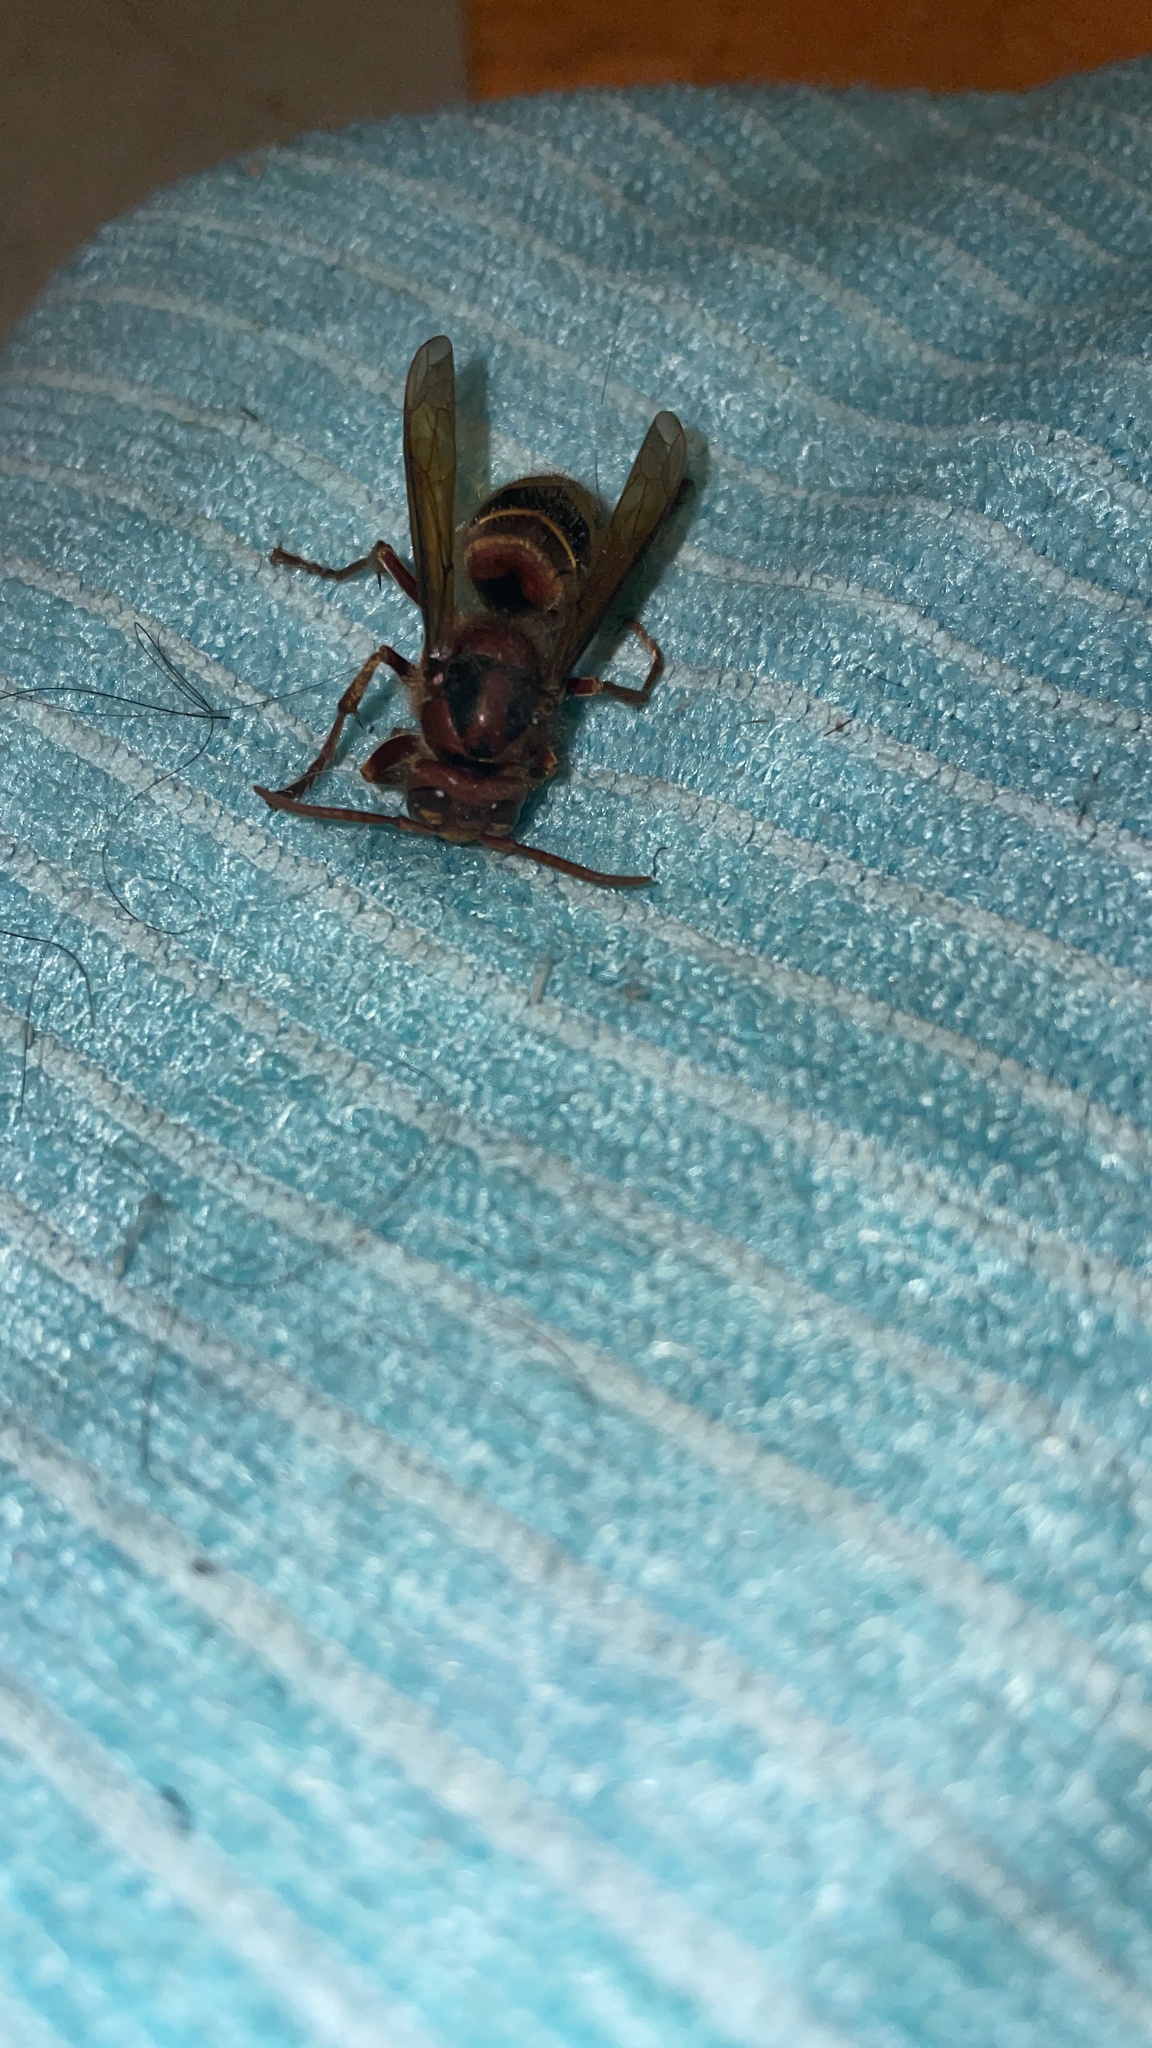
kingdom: Animalia
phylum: Arthropoda
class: Insecta
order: Hymenoptera
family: Vespidae
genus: Vespa
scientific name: Vespa crabro
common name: Hornet
